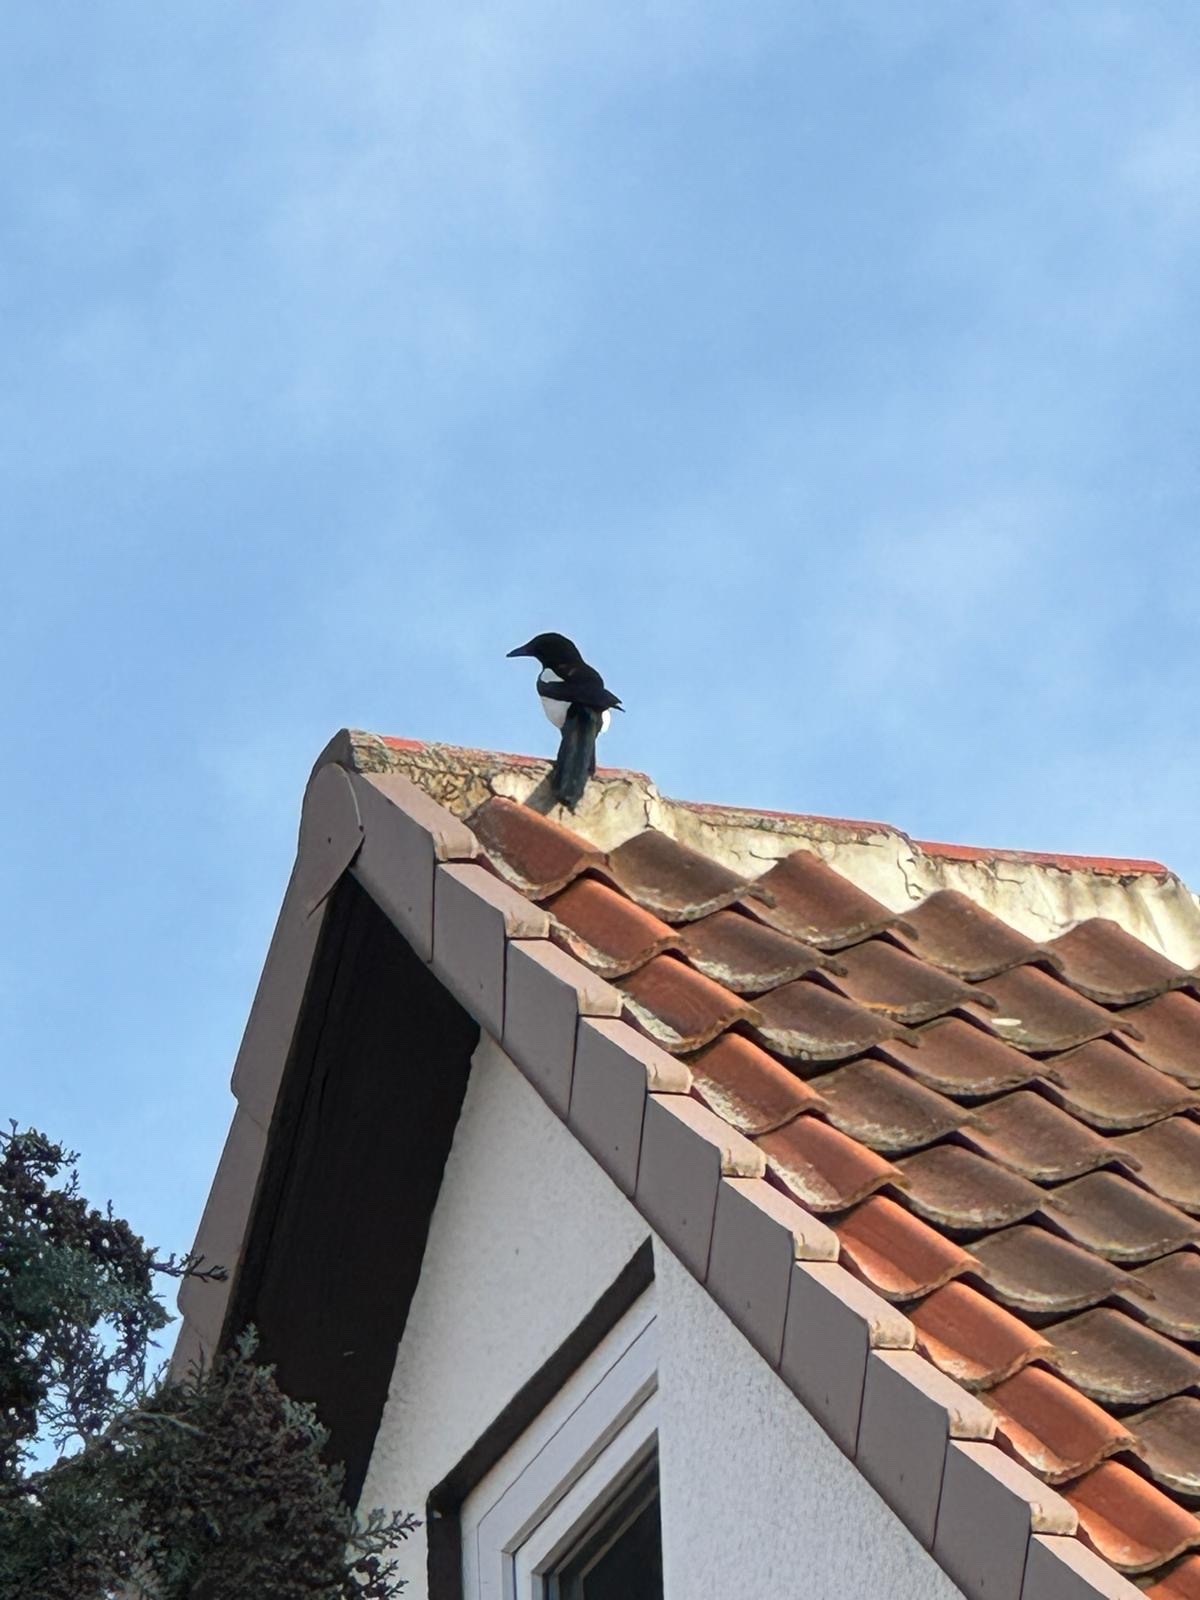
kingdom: Animalia
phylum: Chordata
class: Aves
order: Passeriformes
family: Corvidae
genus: Pica
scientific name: Pica pica
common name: Eurasian magpie
